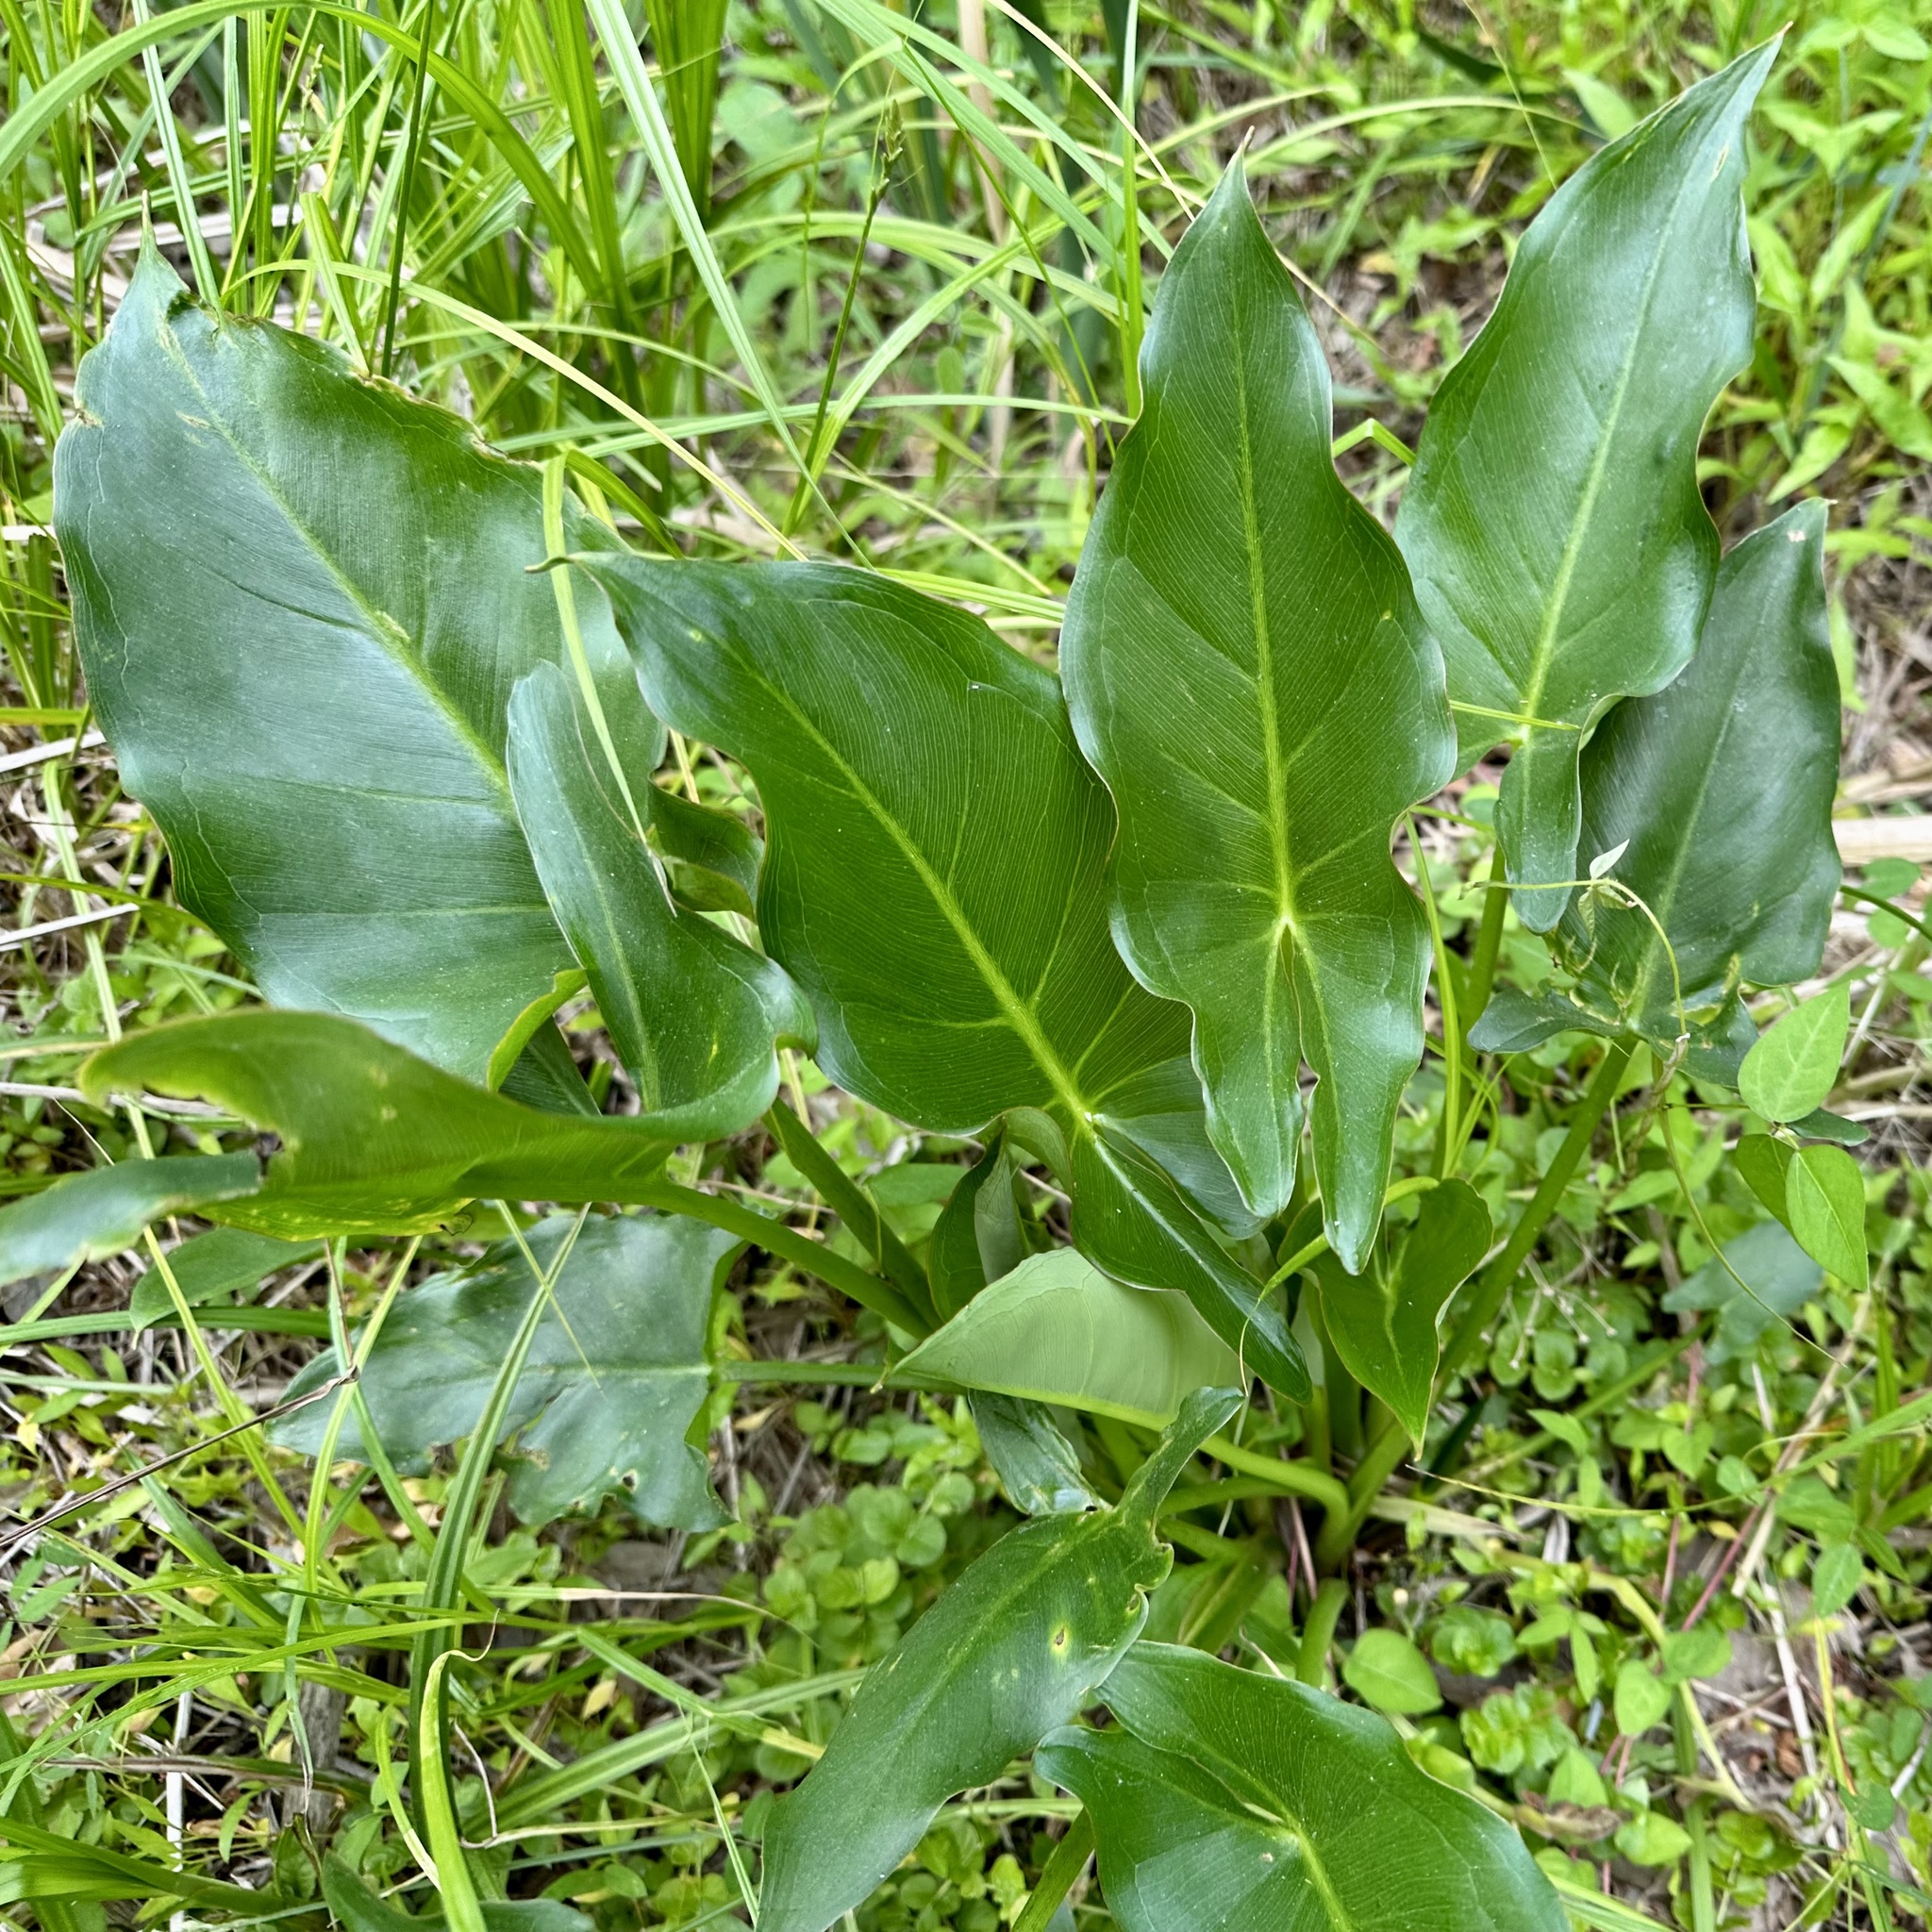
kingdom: Plantae
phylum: Tracheophyta
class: Liliopsida
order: Alismatales
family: Araceae
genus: Peltandra
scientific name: Peltandra virginica
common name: Arrow arum
